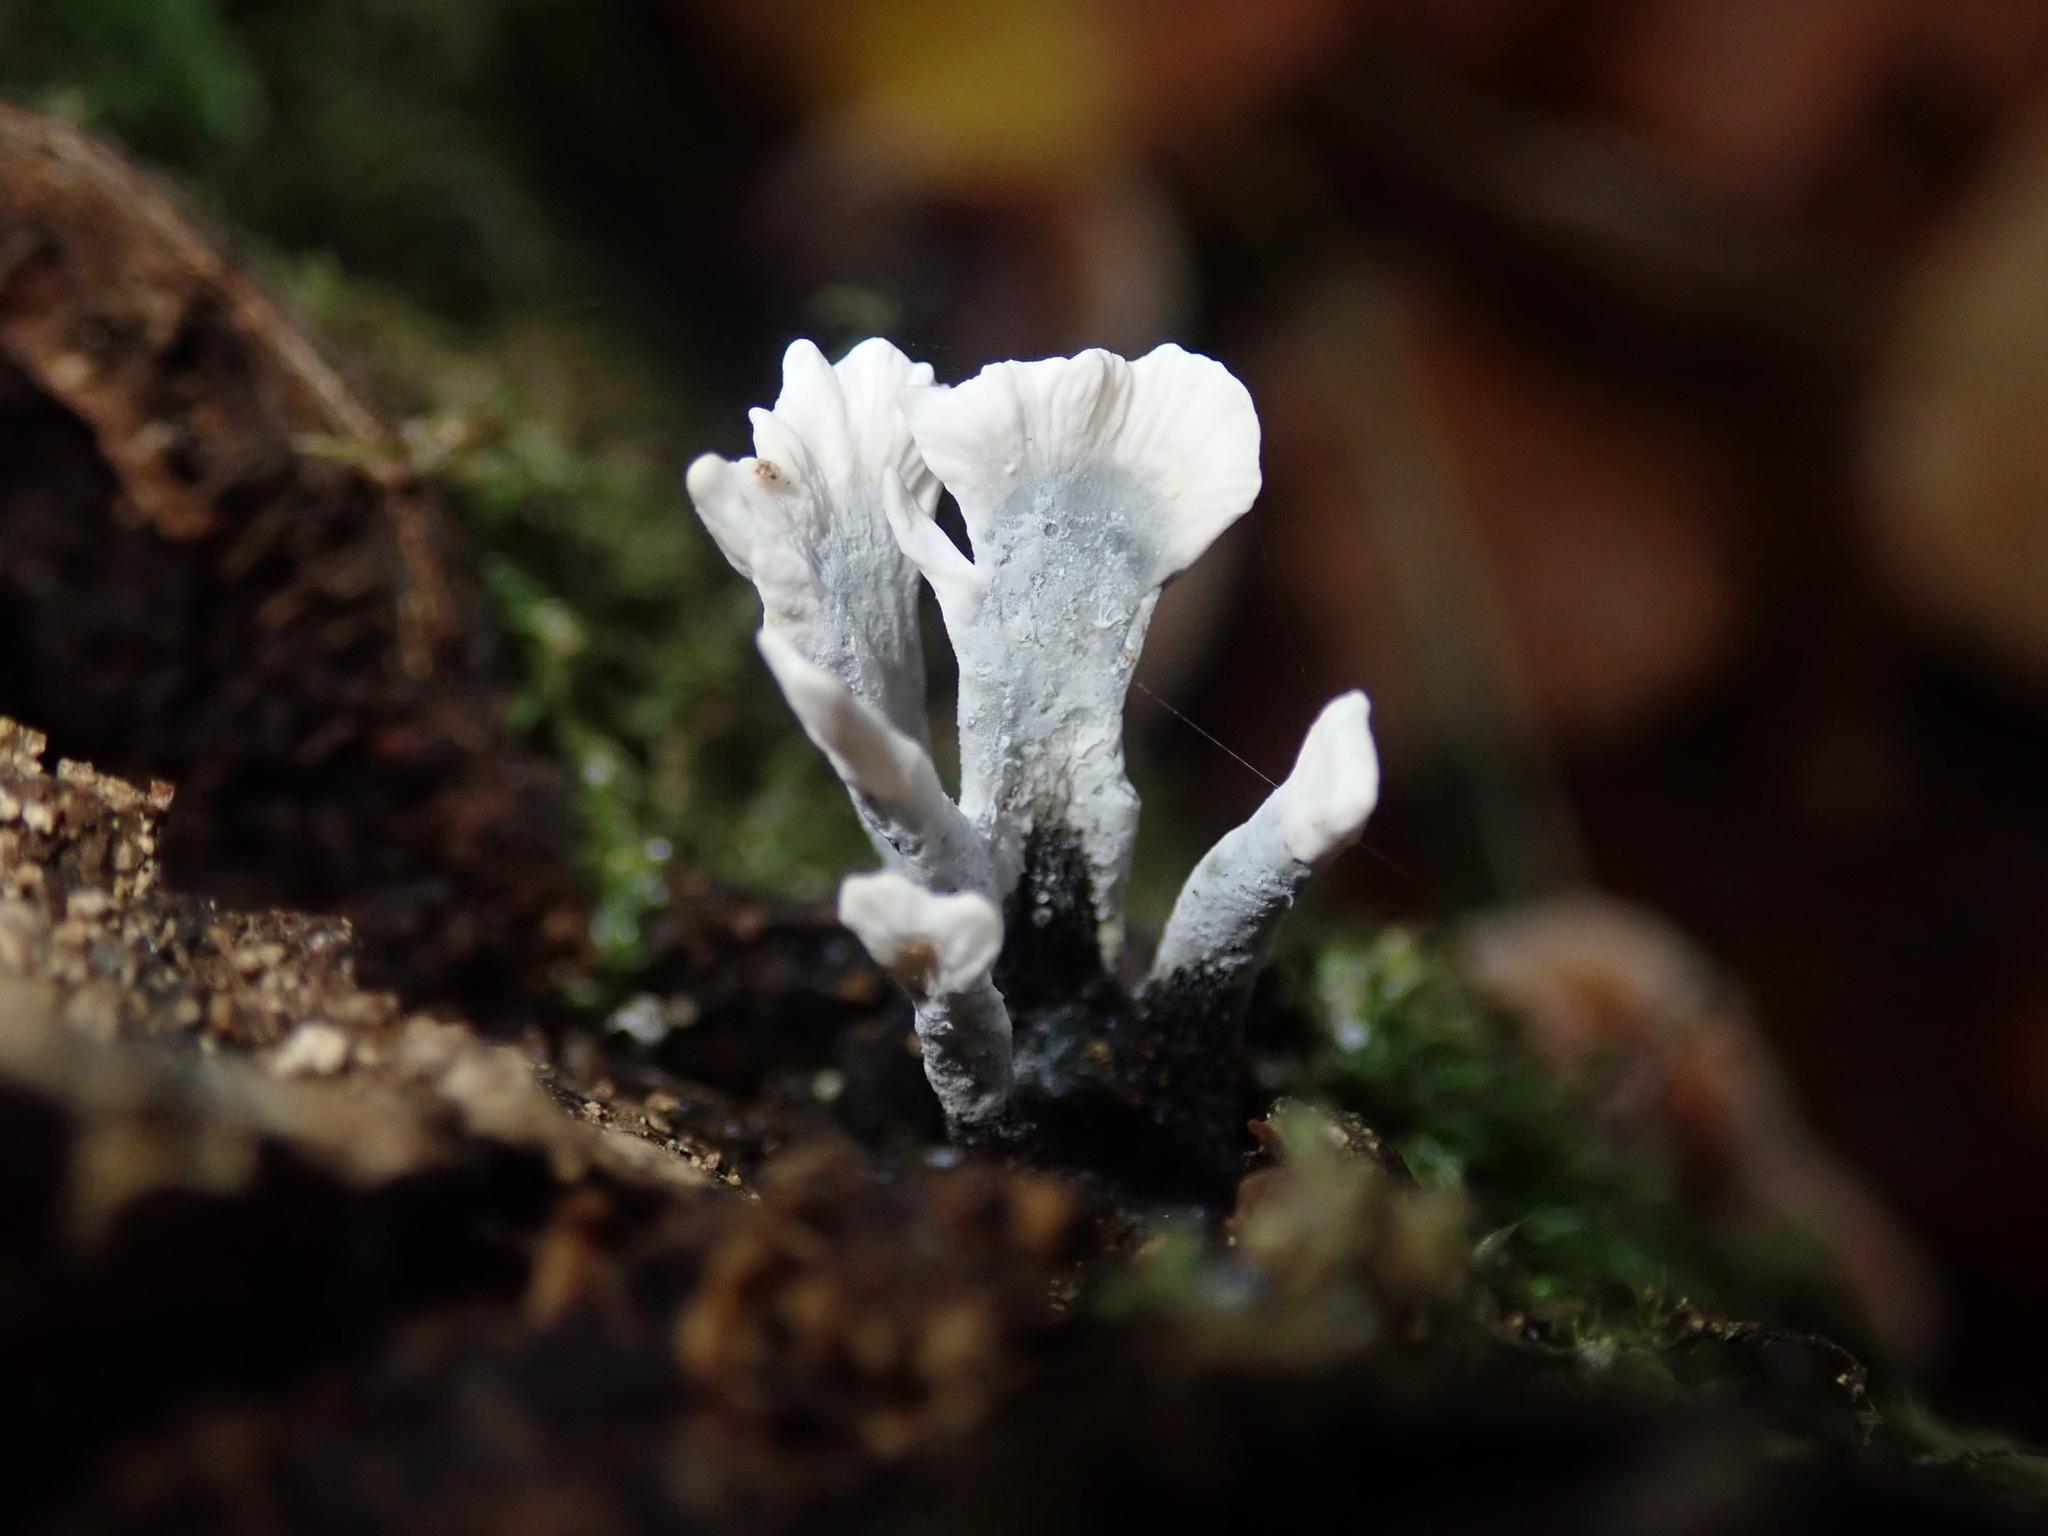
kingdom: Fungi
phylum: Ascomycota
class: Sordariomycetes
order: Xylariales
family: Xylariaceae
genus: Xylaria
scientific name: Xylaria hypoxylon
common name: Candle-snuff fungus
